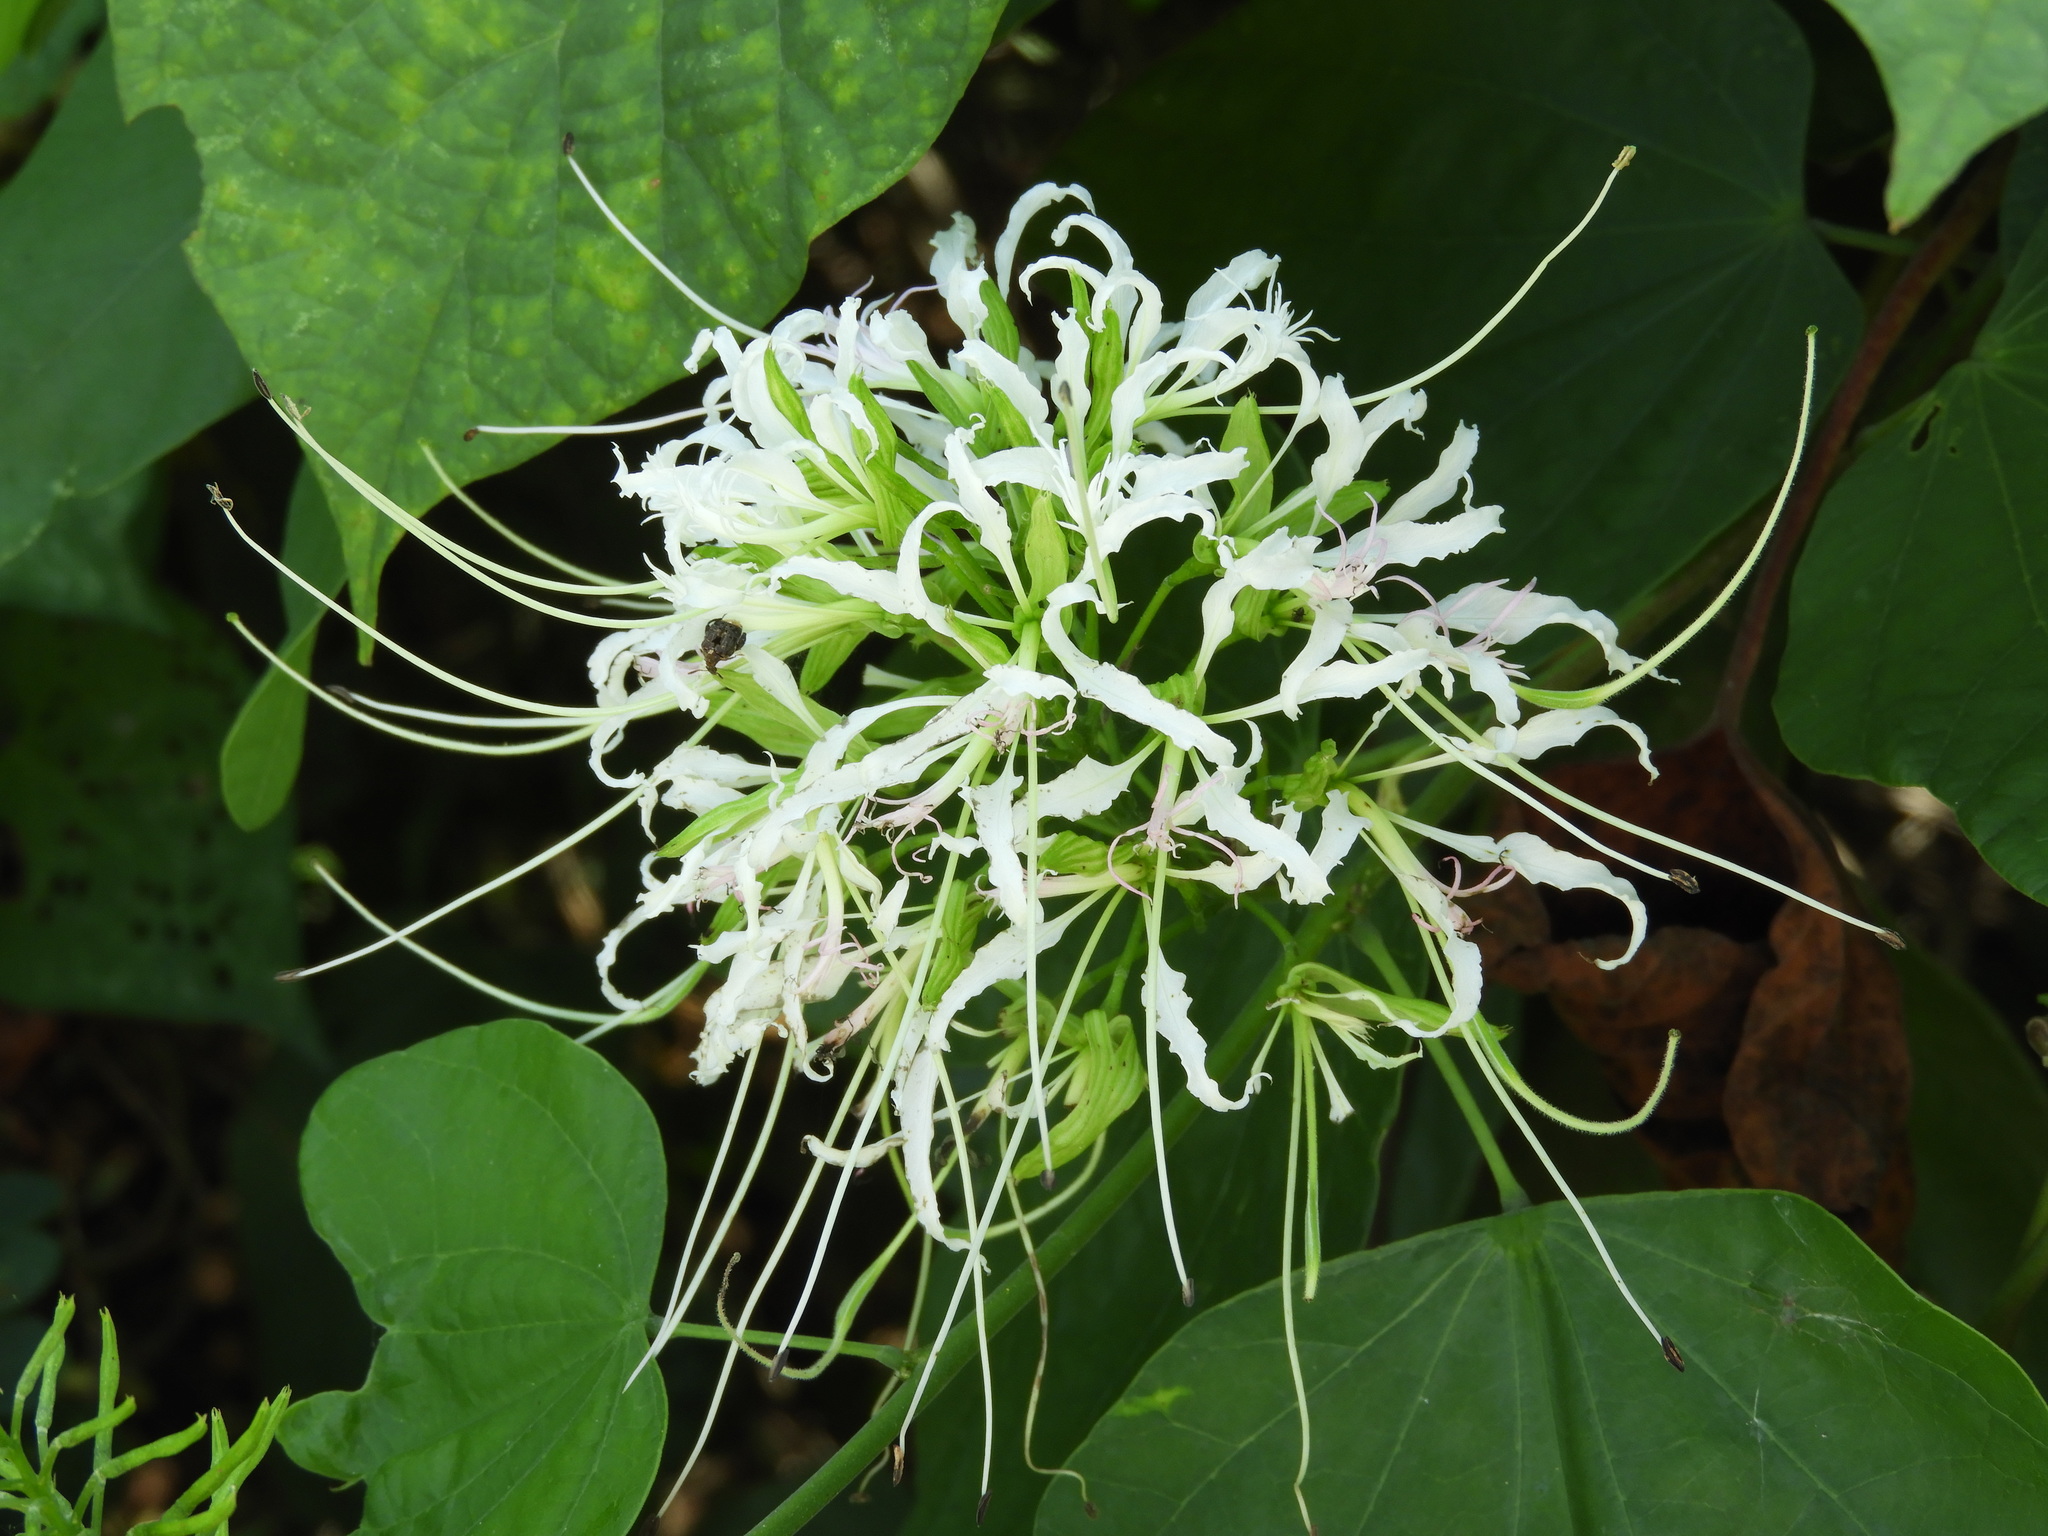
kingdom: Plantae
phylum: Tracheophyta
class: Magnoliopsida
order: Fabales
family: Fabaceae
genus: Bauhinia
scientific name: Bauhinia divaricata
